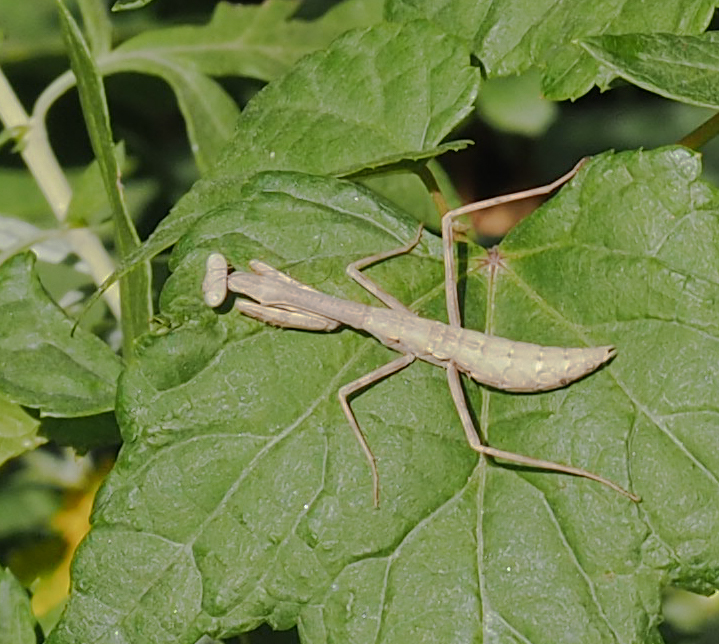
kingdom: Animalia
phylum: Arthropoda
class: Insecta
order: Mantodea
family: Mantidae
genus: Stagmomantis
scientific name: Stagmomantis carolina
